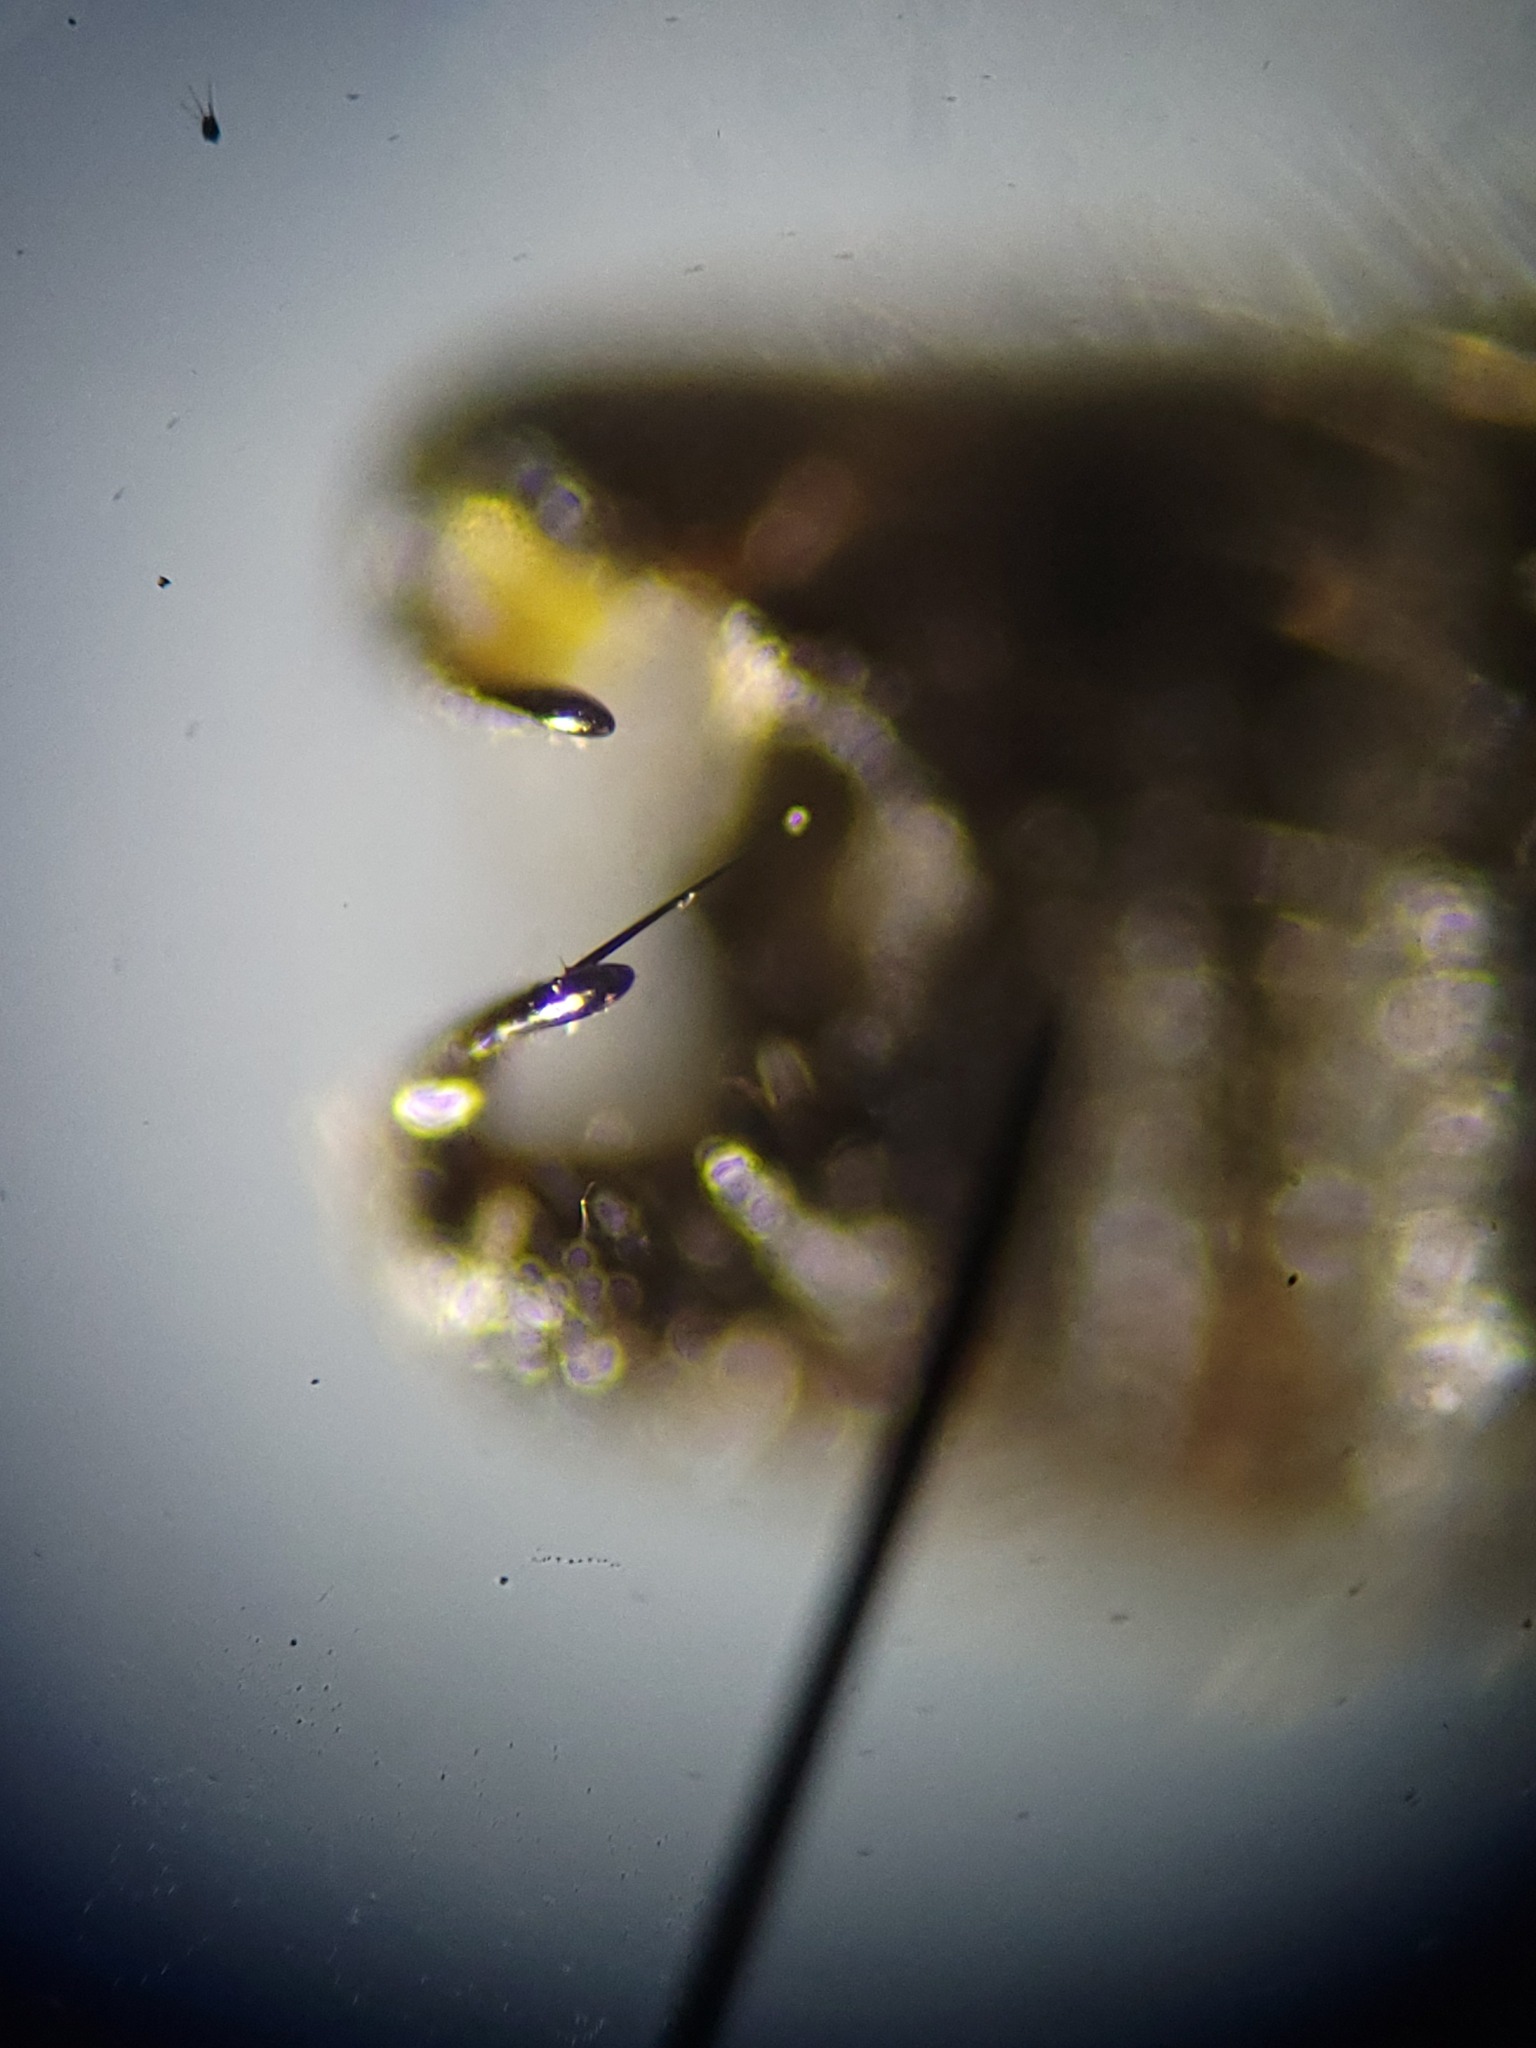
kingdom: Animalia
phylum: Arthropoda
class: Insecta
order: Diptera
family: Bibionidae
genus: Bibio
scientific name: Bibio lanigerus
